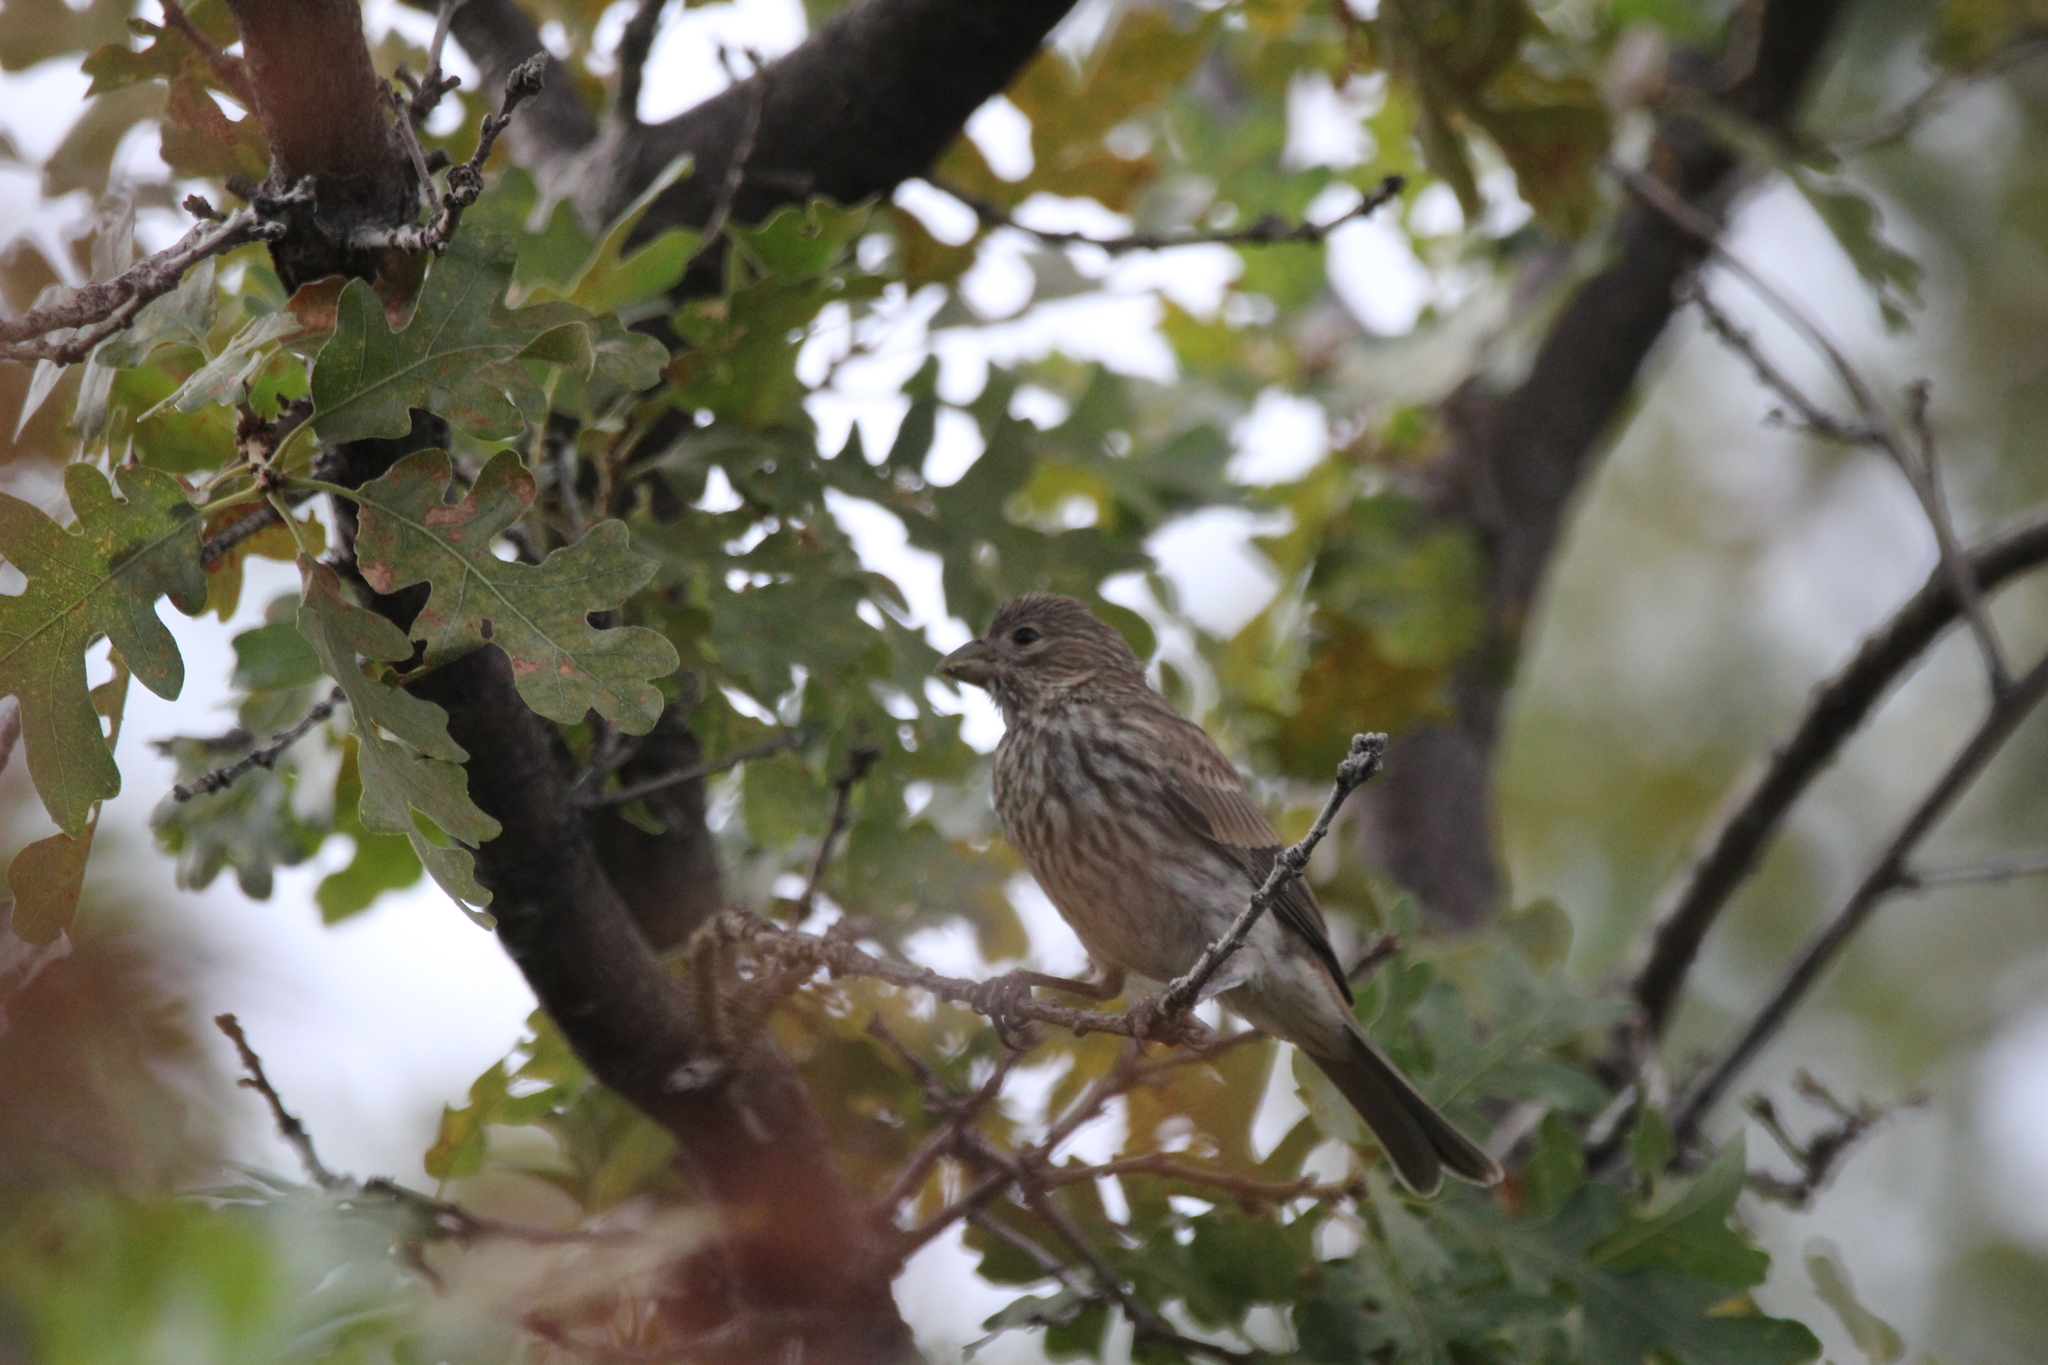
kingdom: Animalia
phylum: Chordata
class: Aves
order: Passeriformes
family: Fringillidae
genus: Haemorhous
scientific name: Haemorhous mexicanus
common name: House finch
